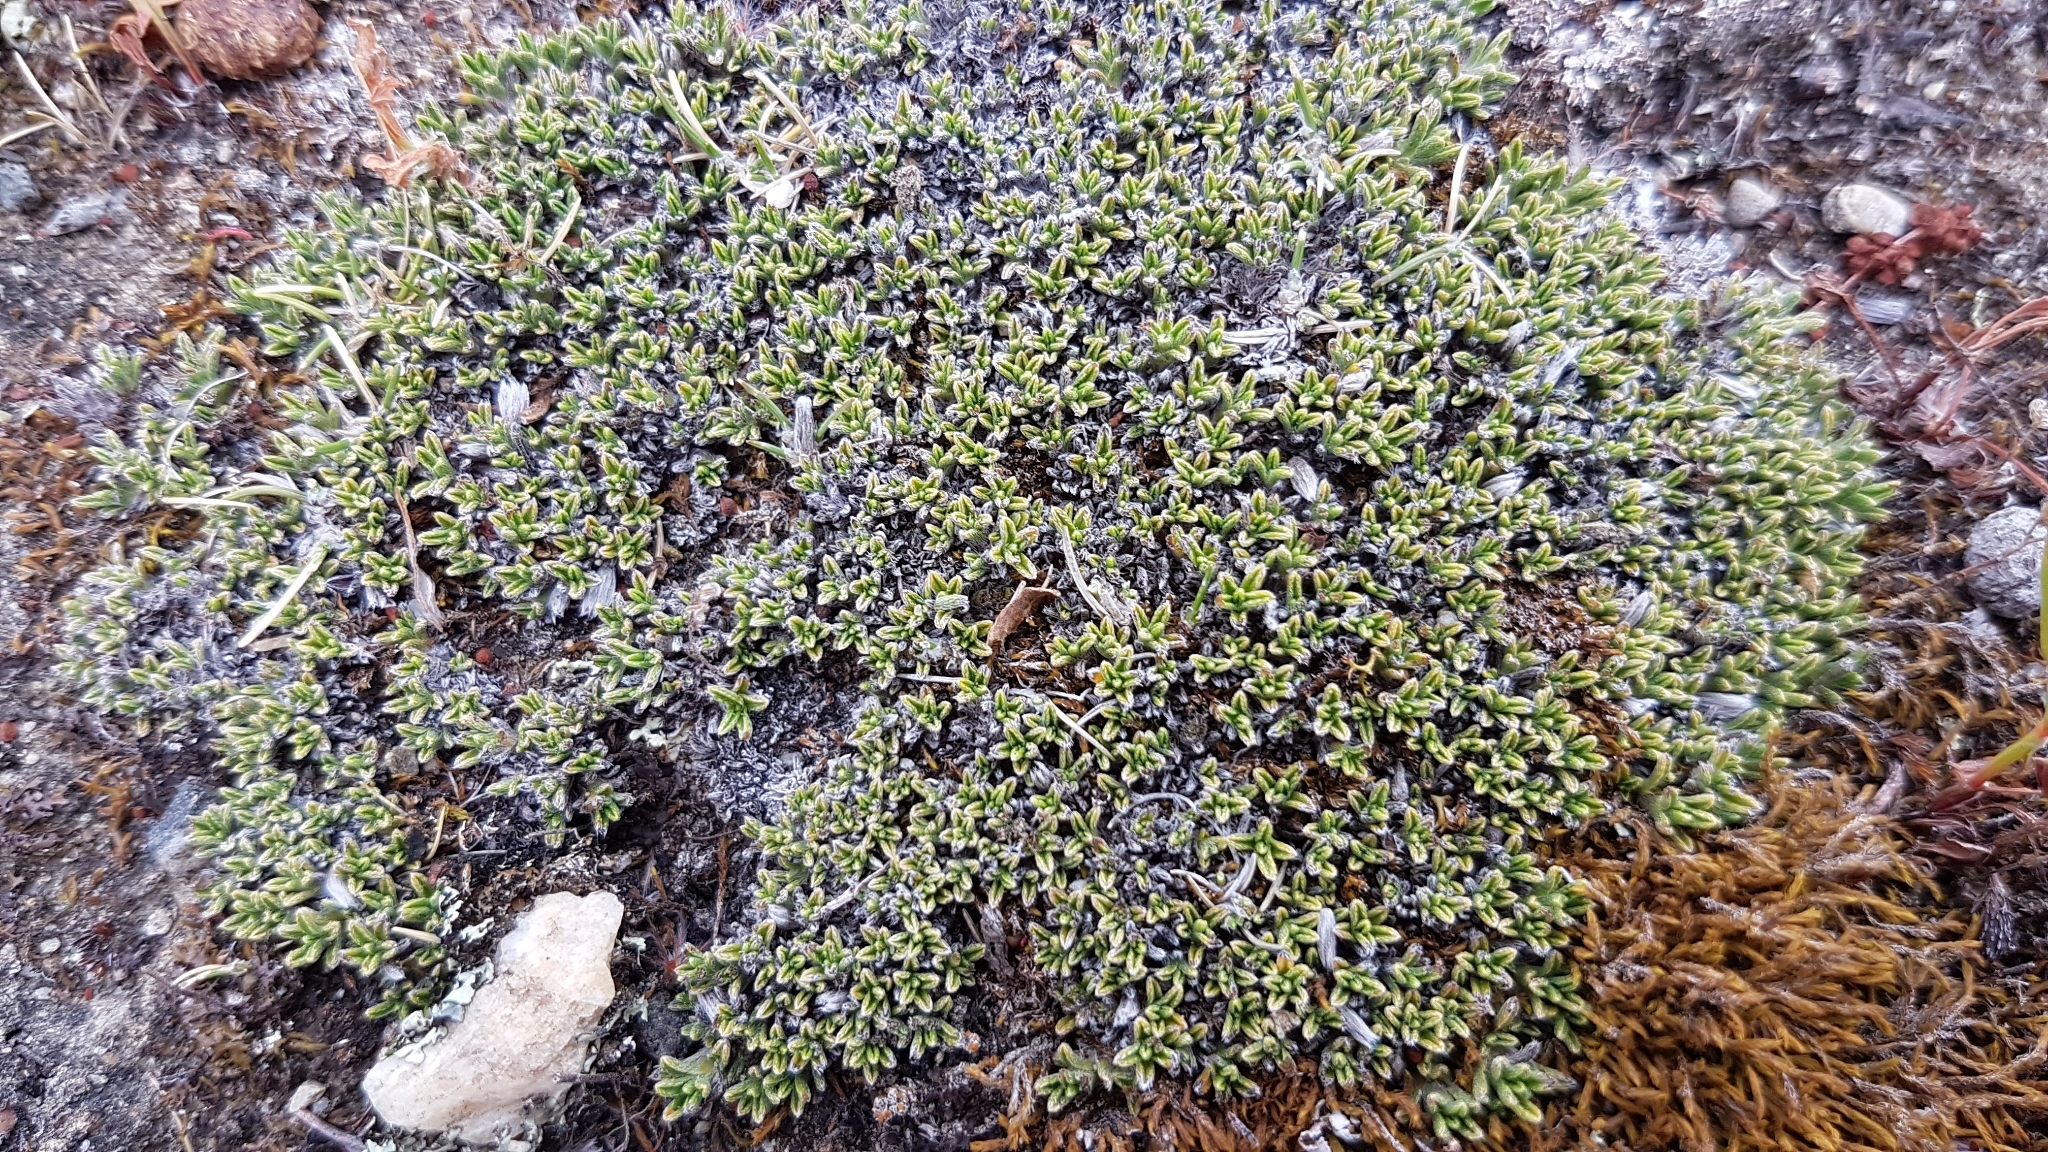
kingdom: Plantae
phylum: Tracheophyta
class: Magnoliopsida
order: Boraginales
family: Boraginaceae
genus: Myosotis
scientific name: Myosotis uniflora
